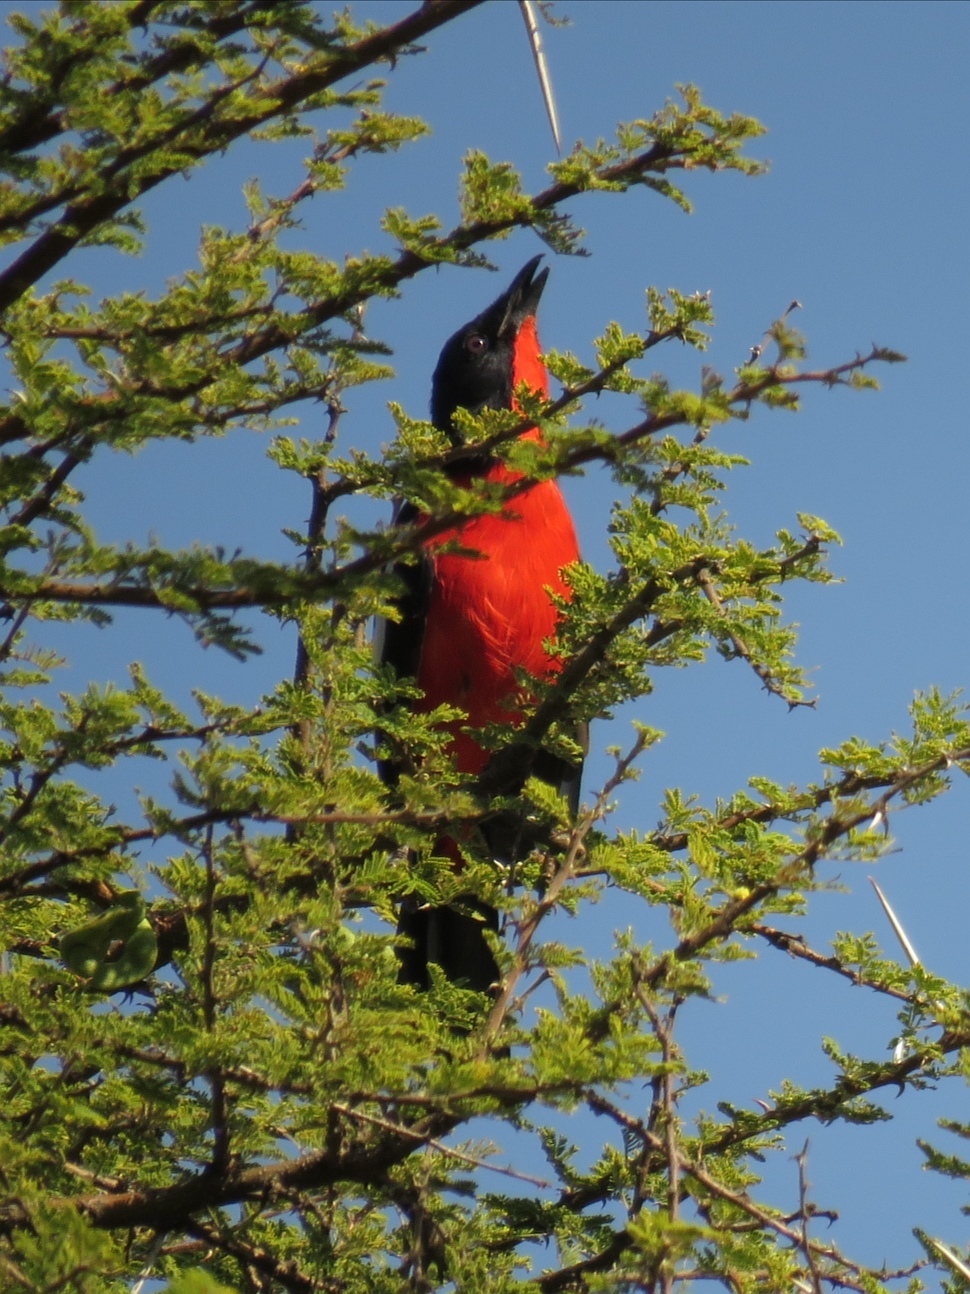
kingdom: Animalia
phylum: Chordata
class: Aves
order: Passeriformes
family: Malaconotidae
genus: Laniarius
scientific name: Laniarius atrococcineus
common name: Crimson-breasted shrike
